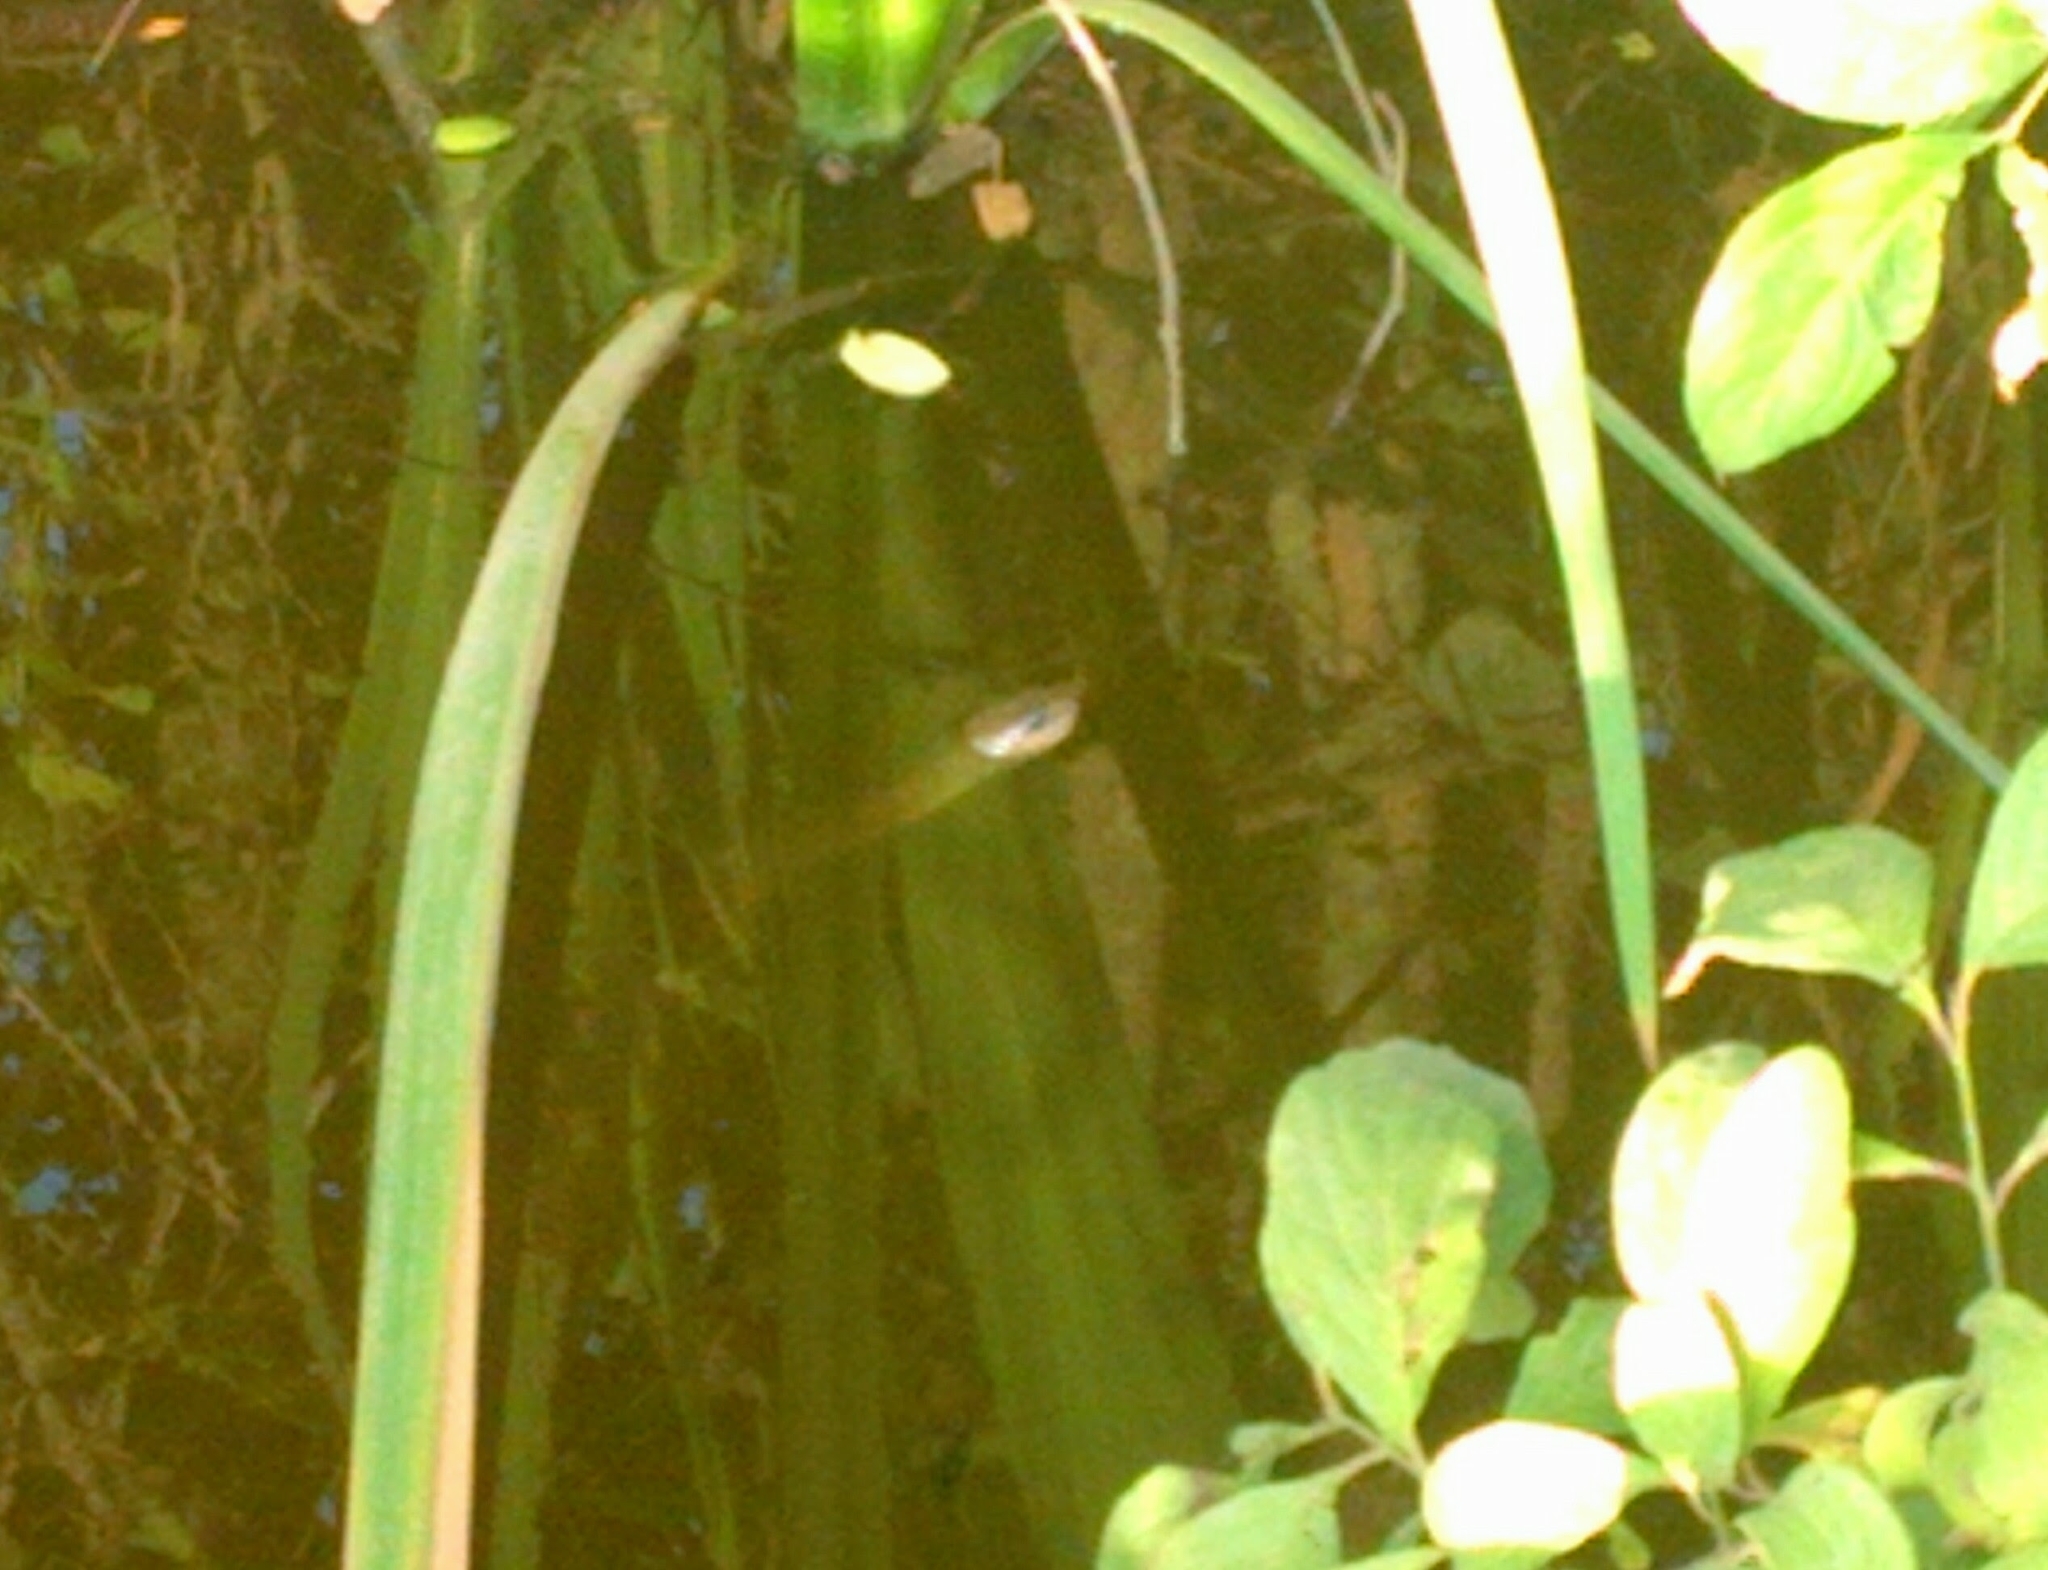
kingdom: Animalia
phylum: Chordata
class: Squamata
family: Colubridae
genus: Erythrolamprus
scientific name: Erythrolamprus semiaureus
